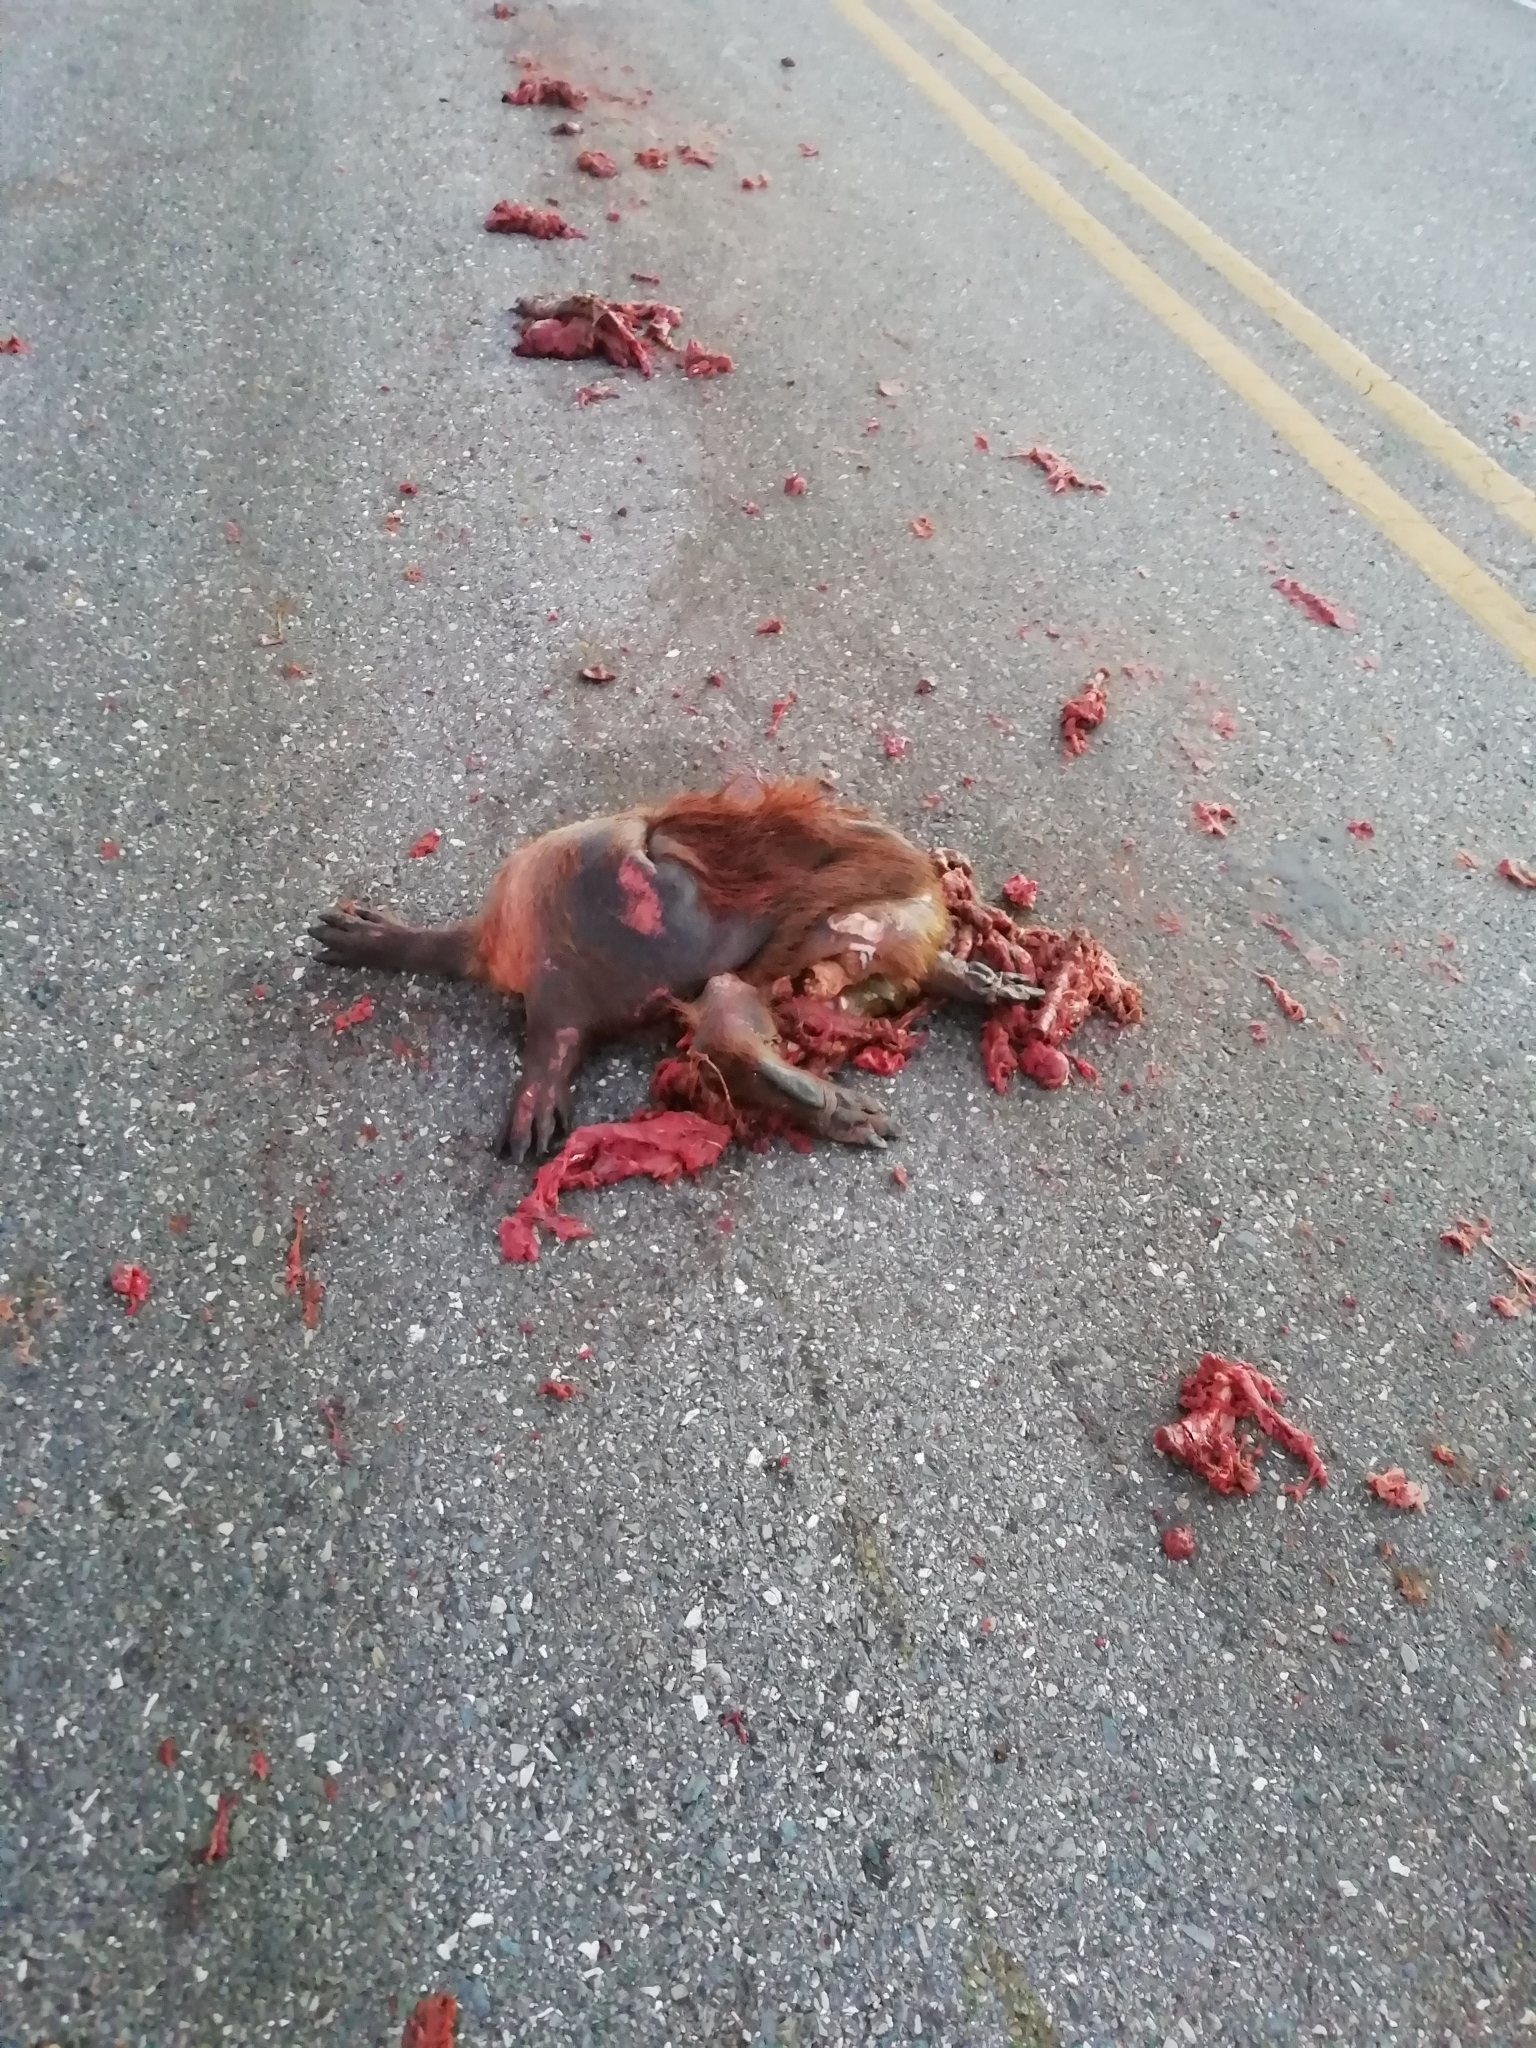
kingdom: Animalia
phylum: Chordata
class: Mammalia
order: Rodentia
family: Caviidae
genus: Hydrochoerus
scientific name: Hydrochoerus hydrochaeris
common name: Capybara
